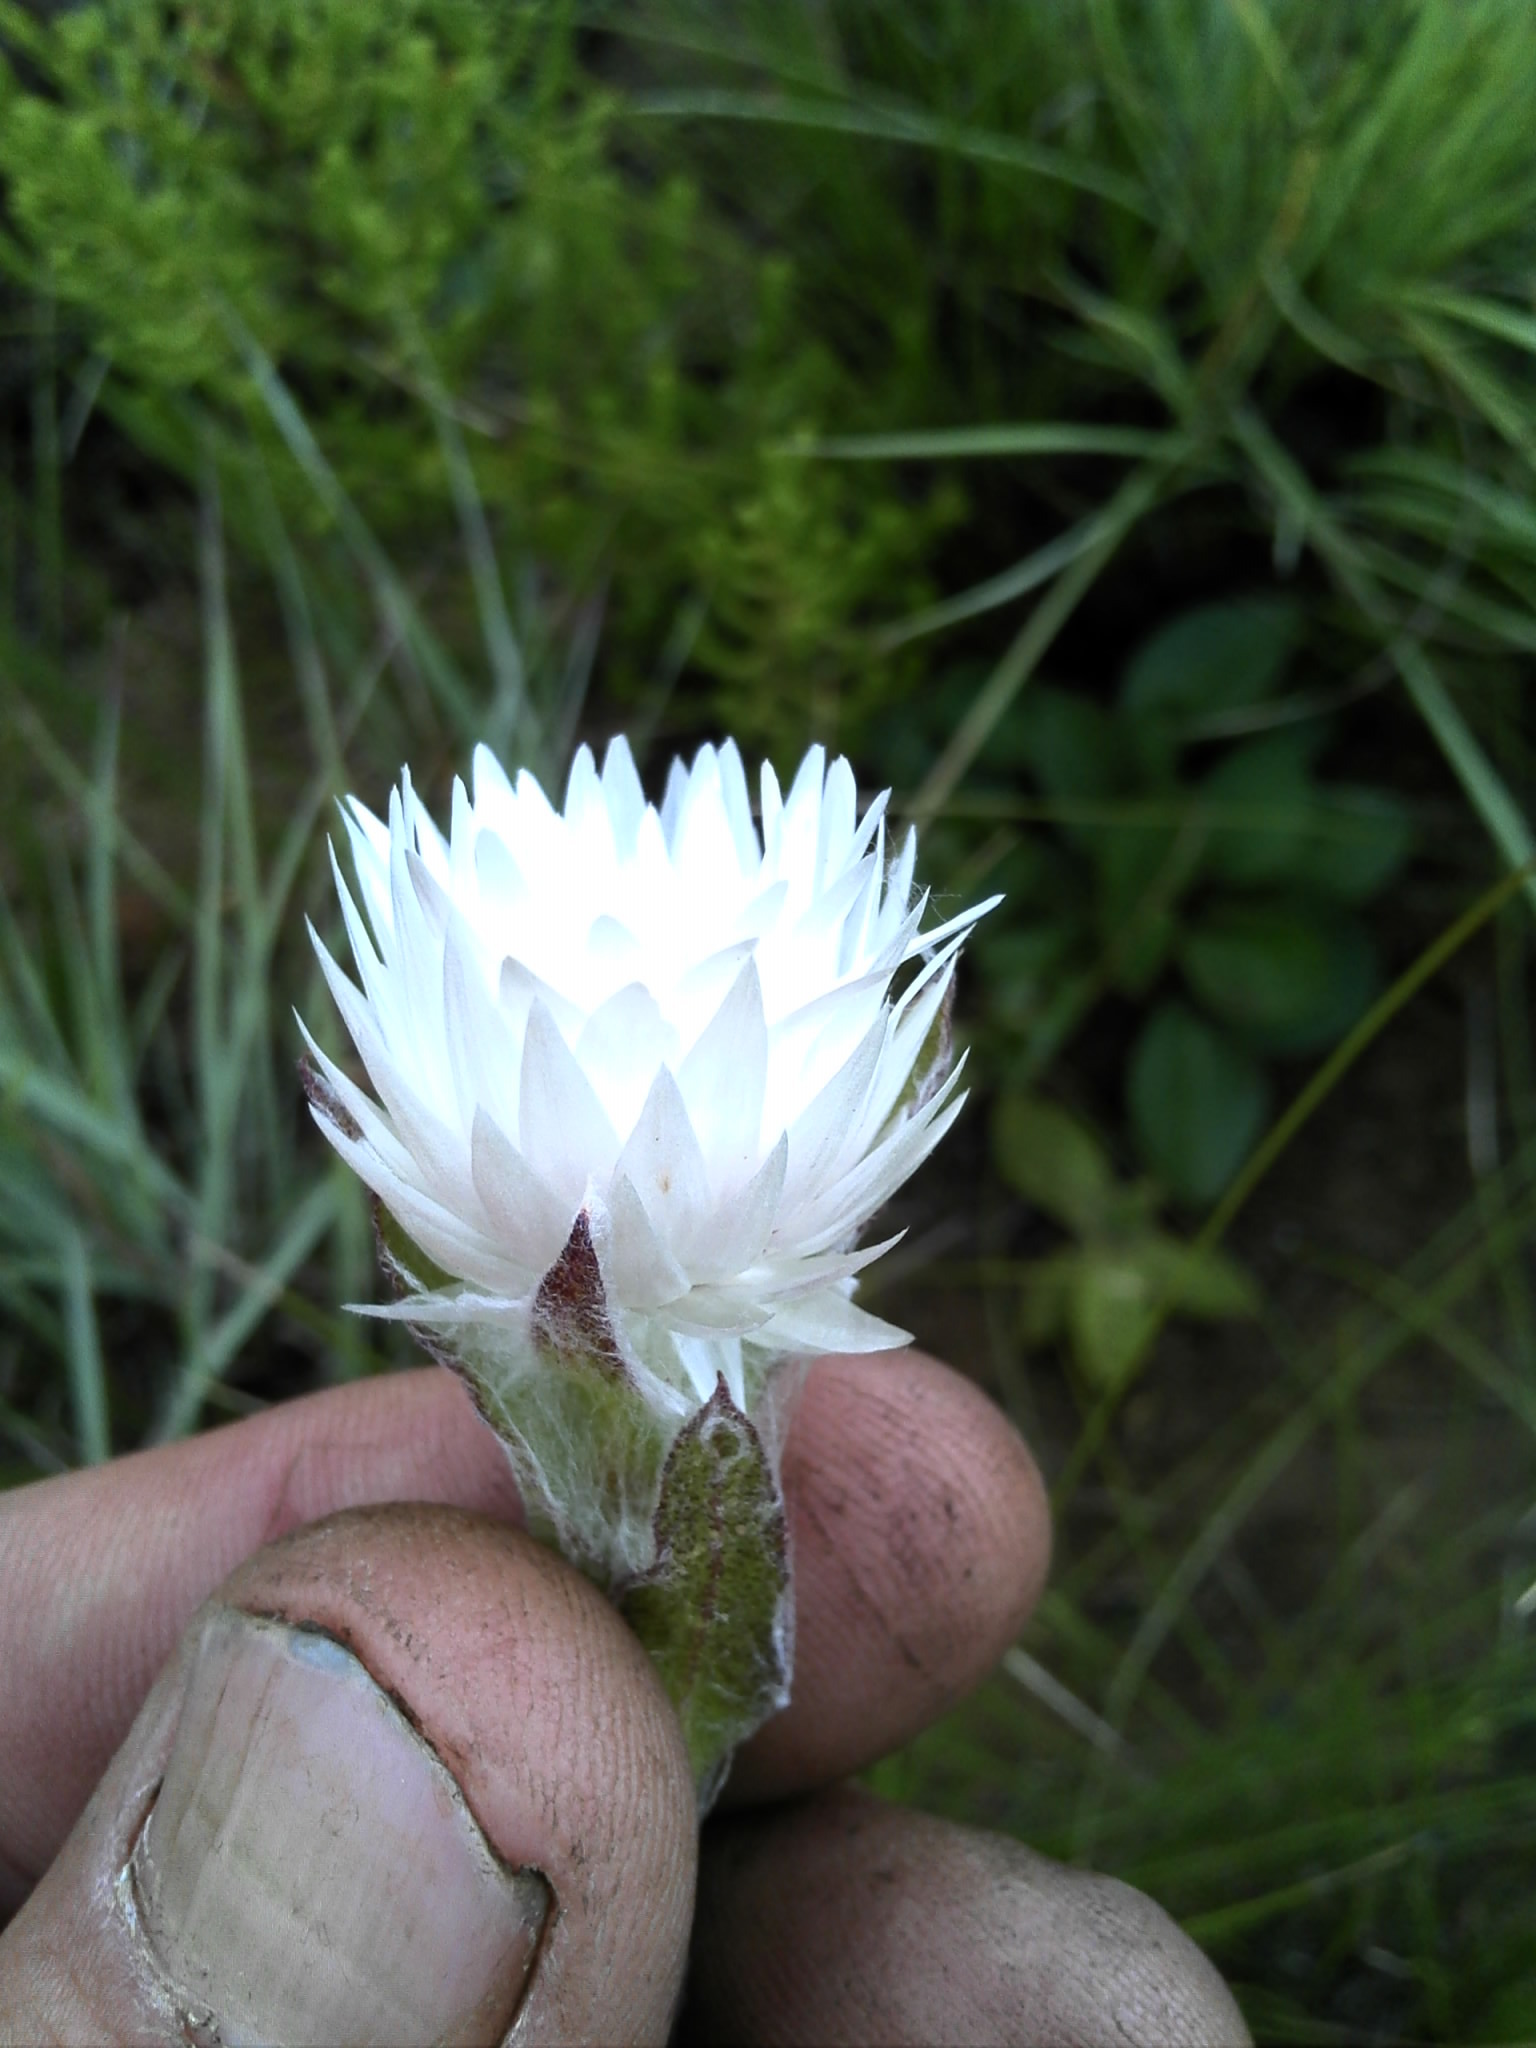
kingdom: Plantae
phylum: Tracheophyta
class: Magnoliopsida
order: Asterales
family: Asteraceae
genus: Helichrysum
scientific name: Helichrysum monticola
